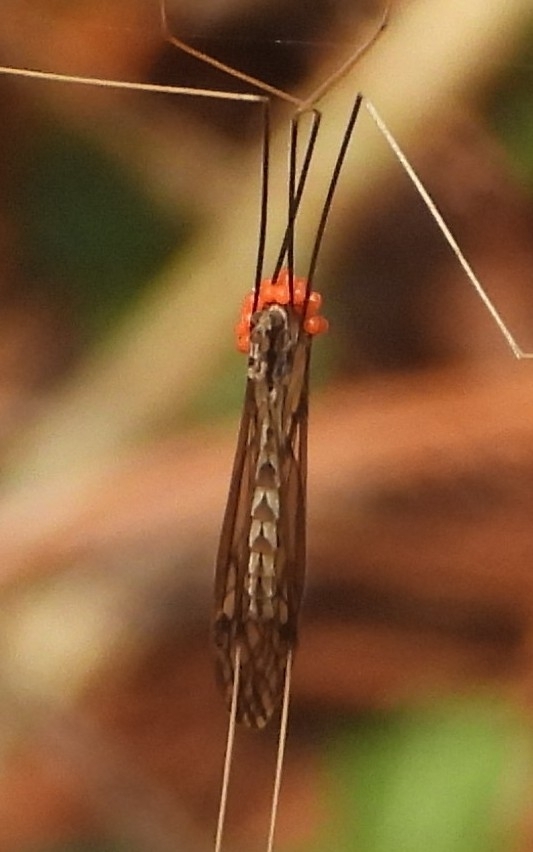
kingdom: Animalia
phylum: Arthropoda
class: Insecta
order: Diptera
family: Tipulidae
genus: Brachypremna
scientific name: Brachypremna dispellens
